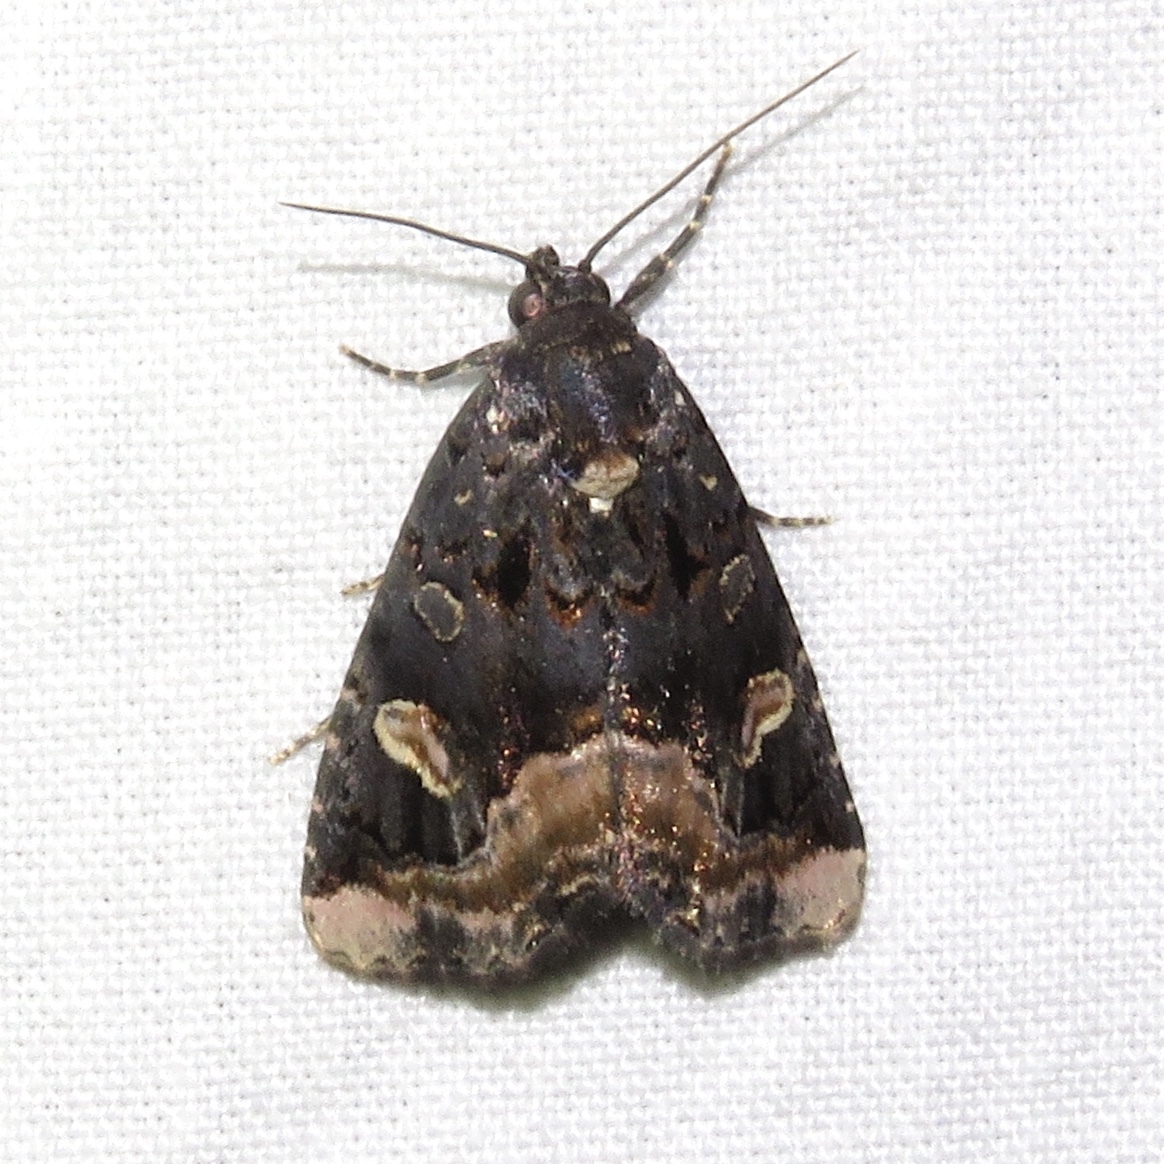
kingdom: Animalia
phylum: Arthropoda
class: Insecta
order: Lepidoptera
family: Noctuidae
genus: Homophoberia
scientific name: Homophoberia apicosa
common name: Black wedge-spot
